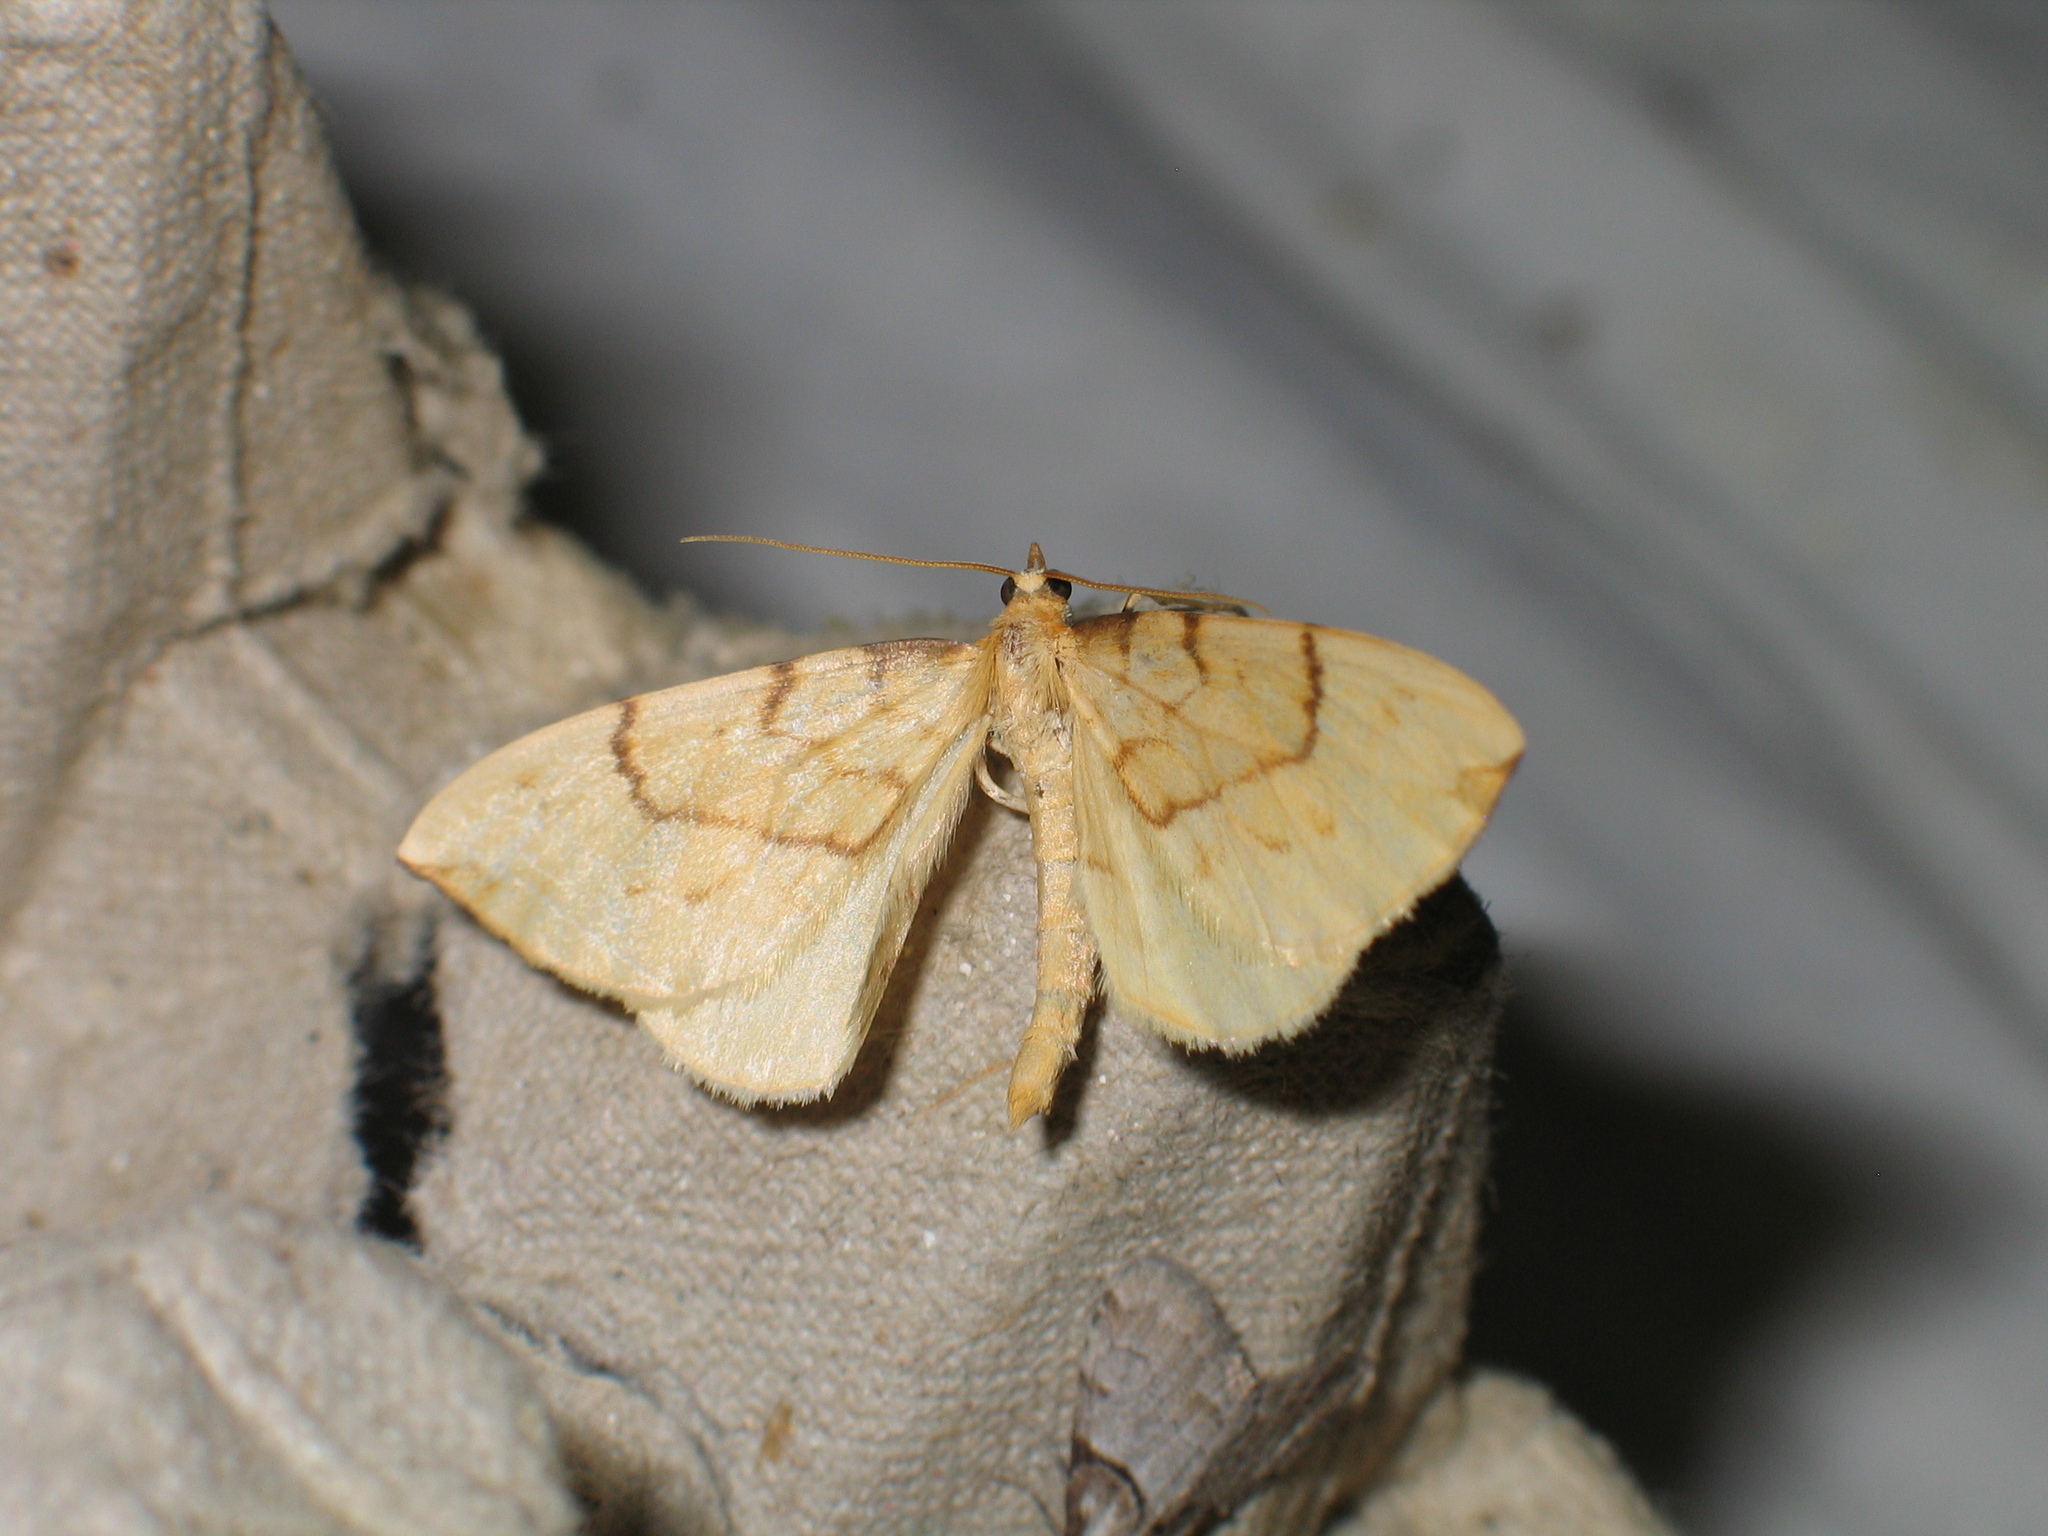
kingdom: Animalia
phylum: Arthropoda
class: Insecta
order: Lepidoptera
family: Geometridae
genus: Eulithis
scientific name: Eulithis pyraliata
